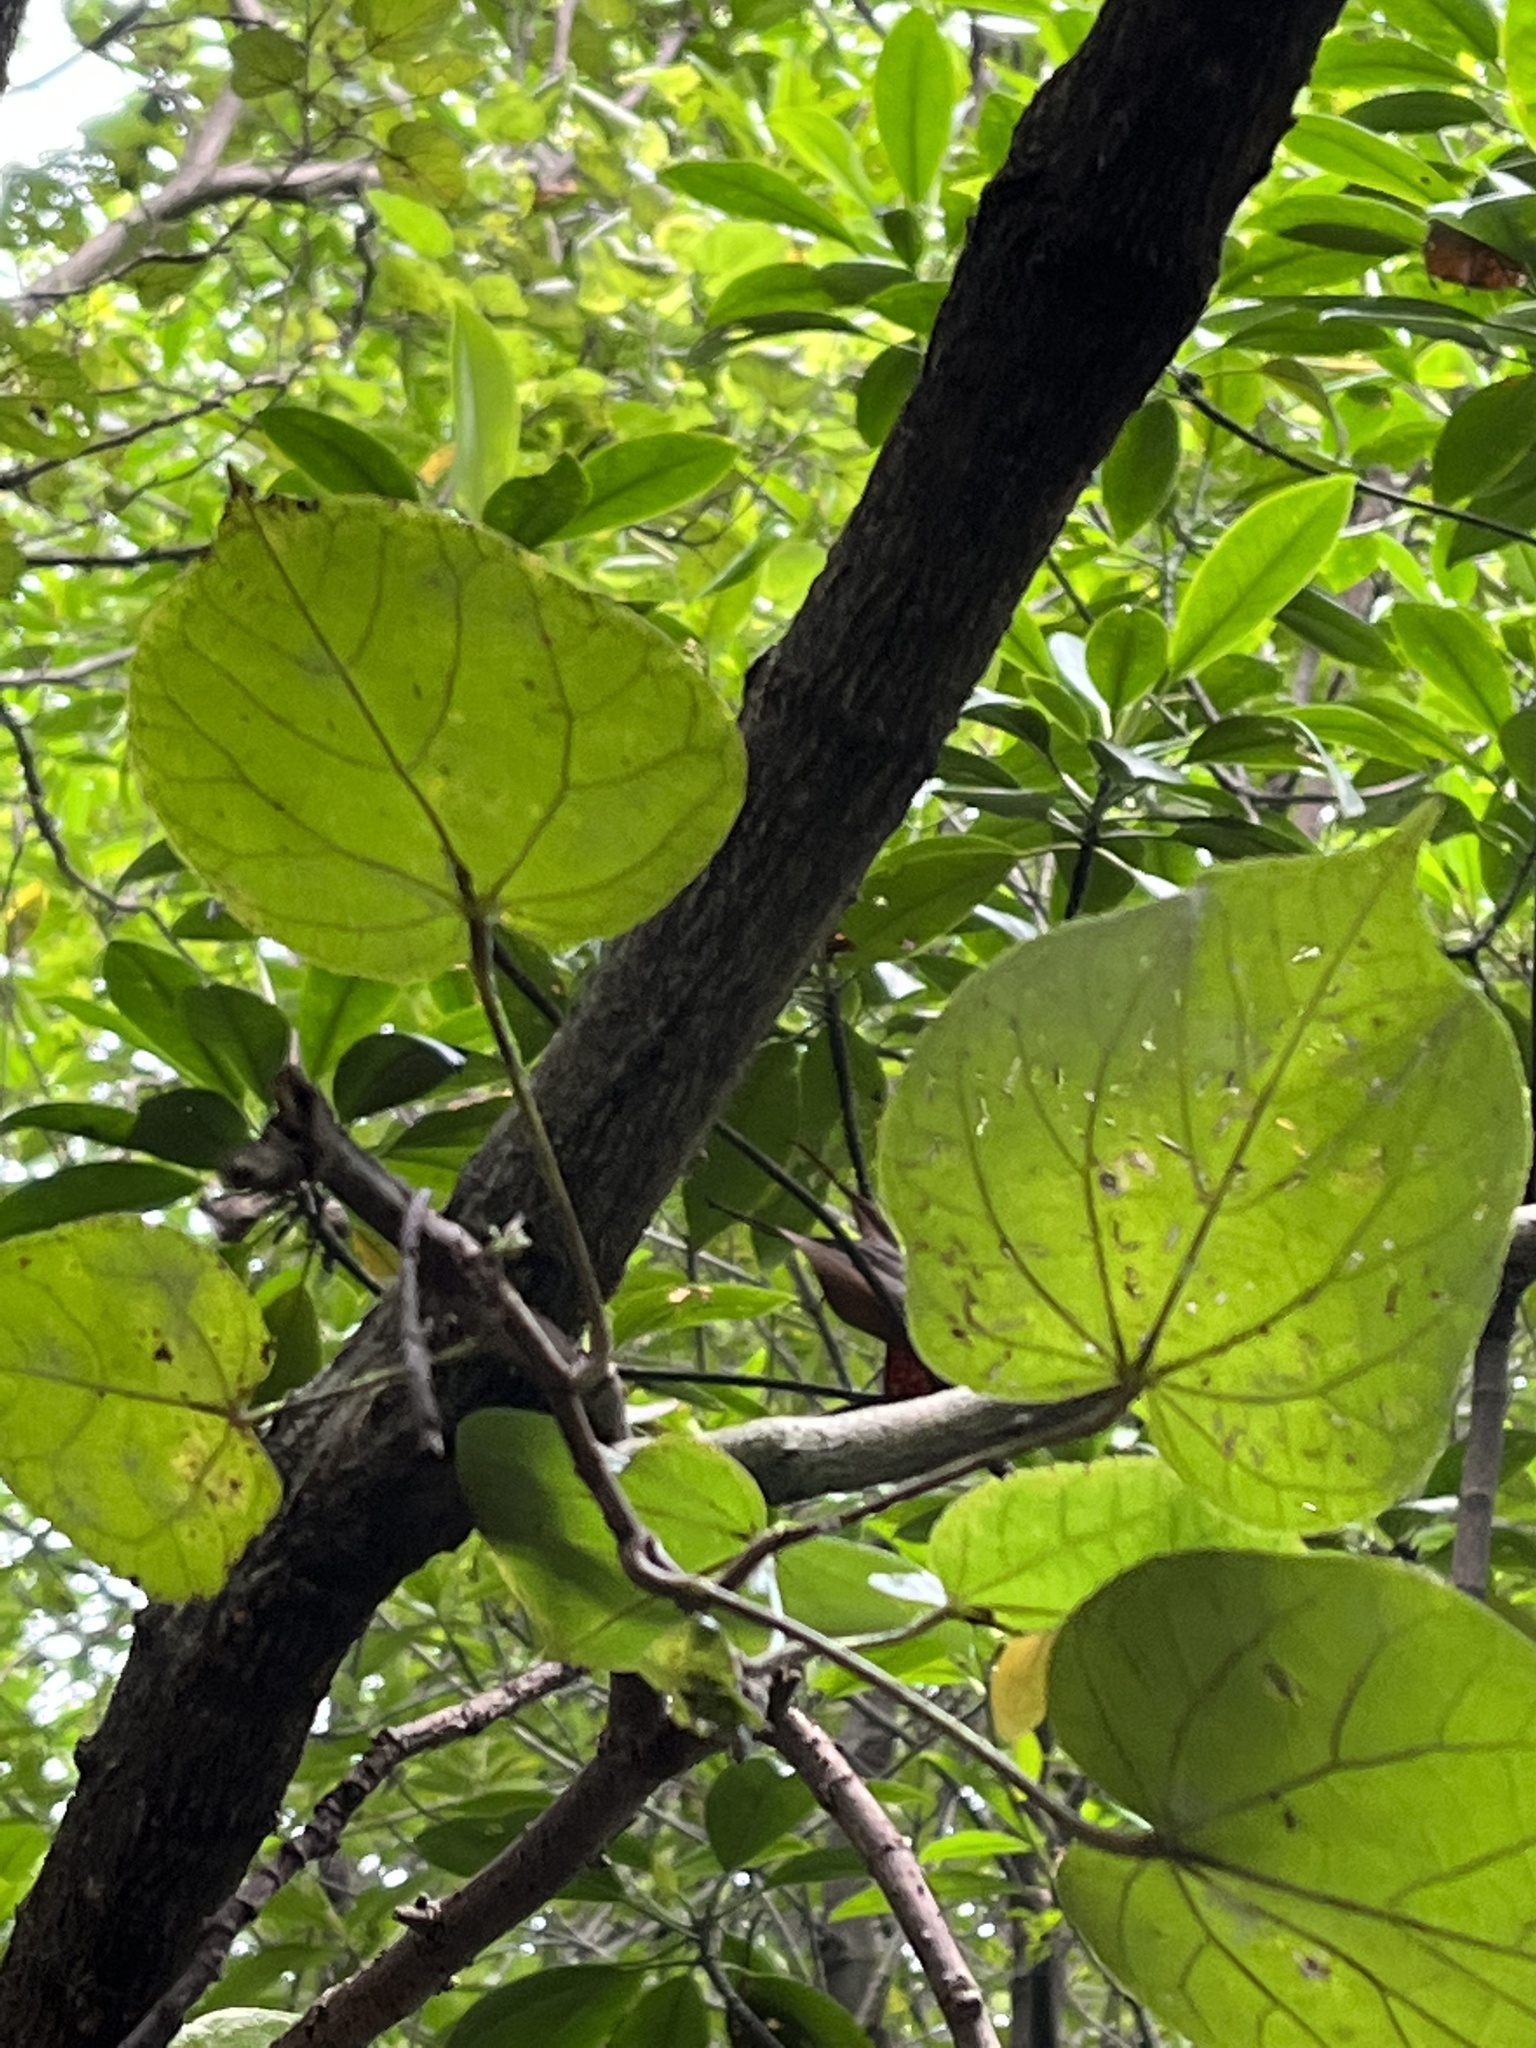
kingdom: Plantae
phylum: Tracheophyta
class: Magnoliopsida
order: Malpighiales
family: Rhizophoraceae
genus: Rhizophora
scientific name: Rhizophora mucronata
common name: Loop-root mangrove
